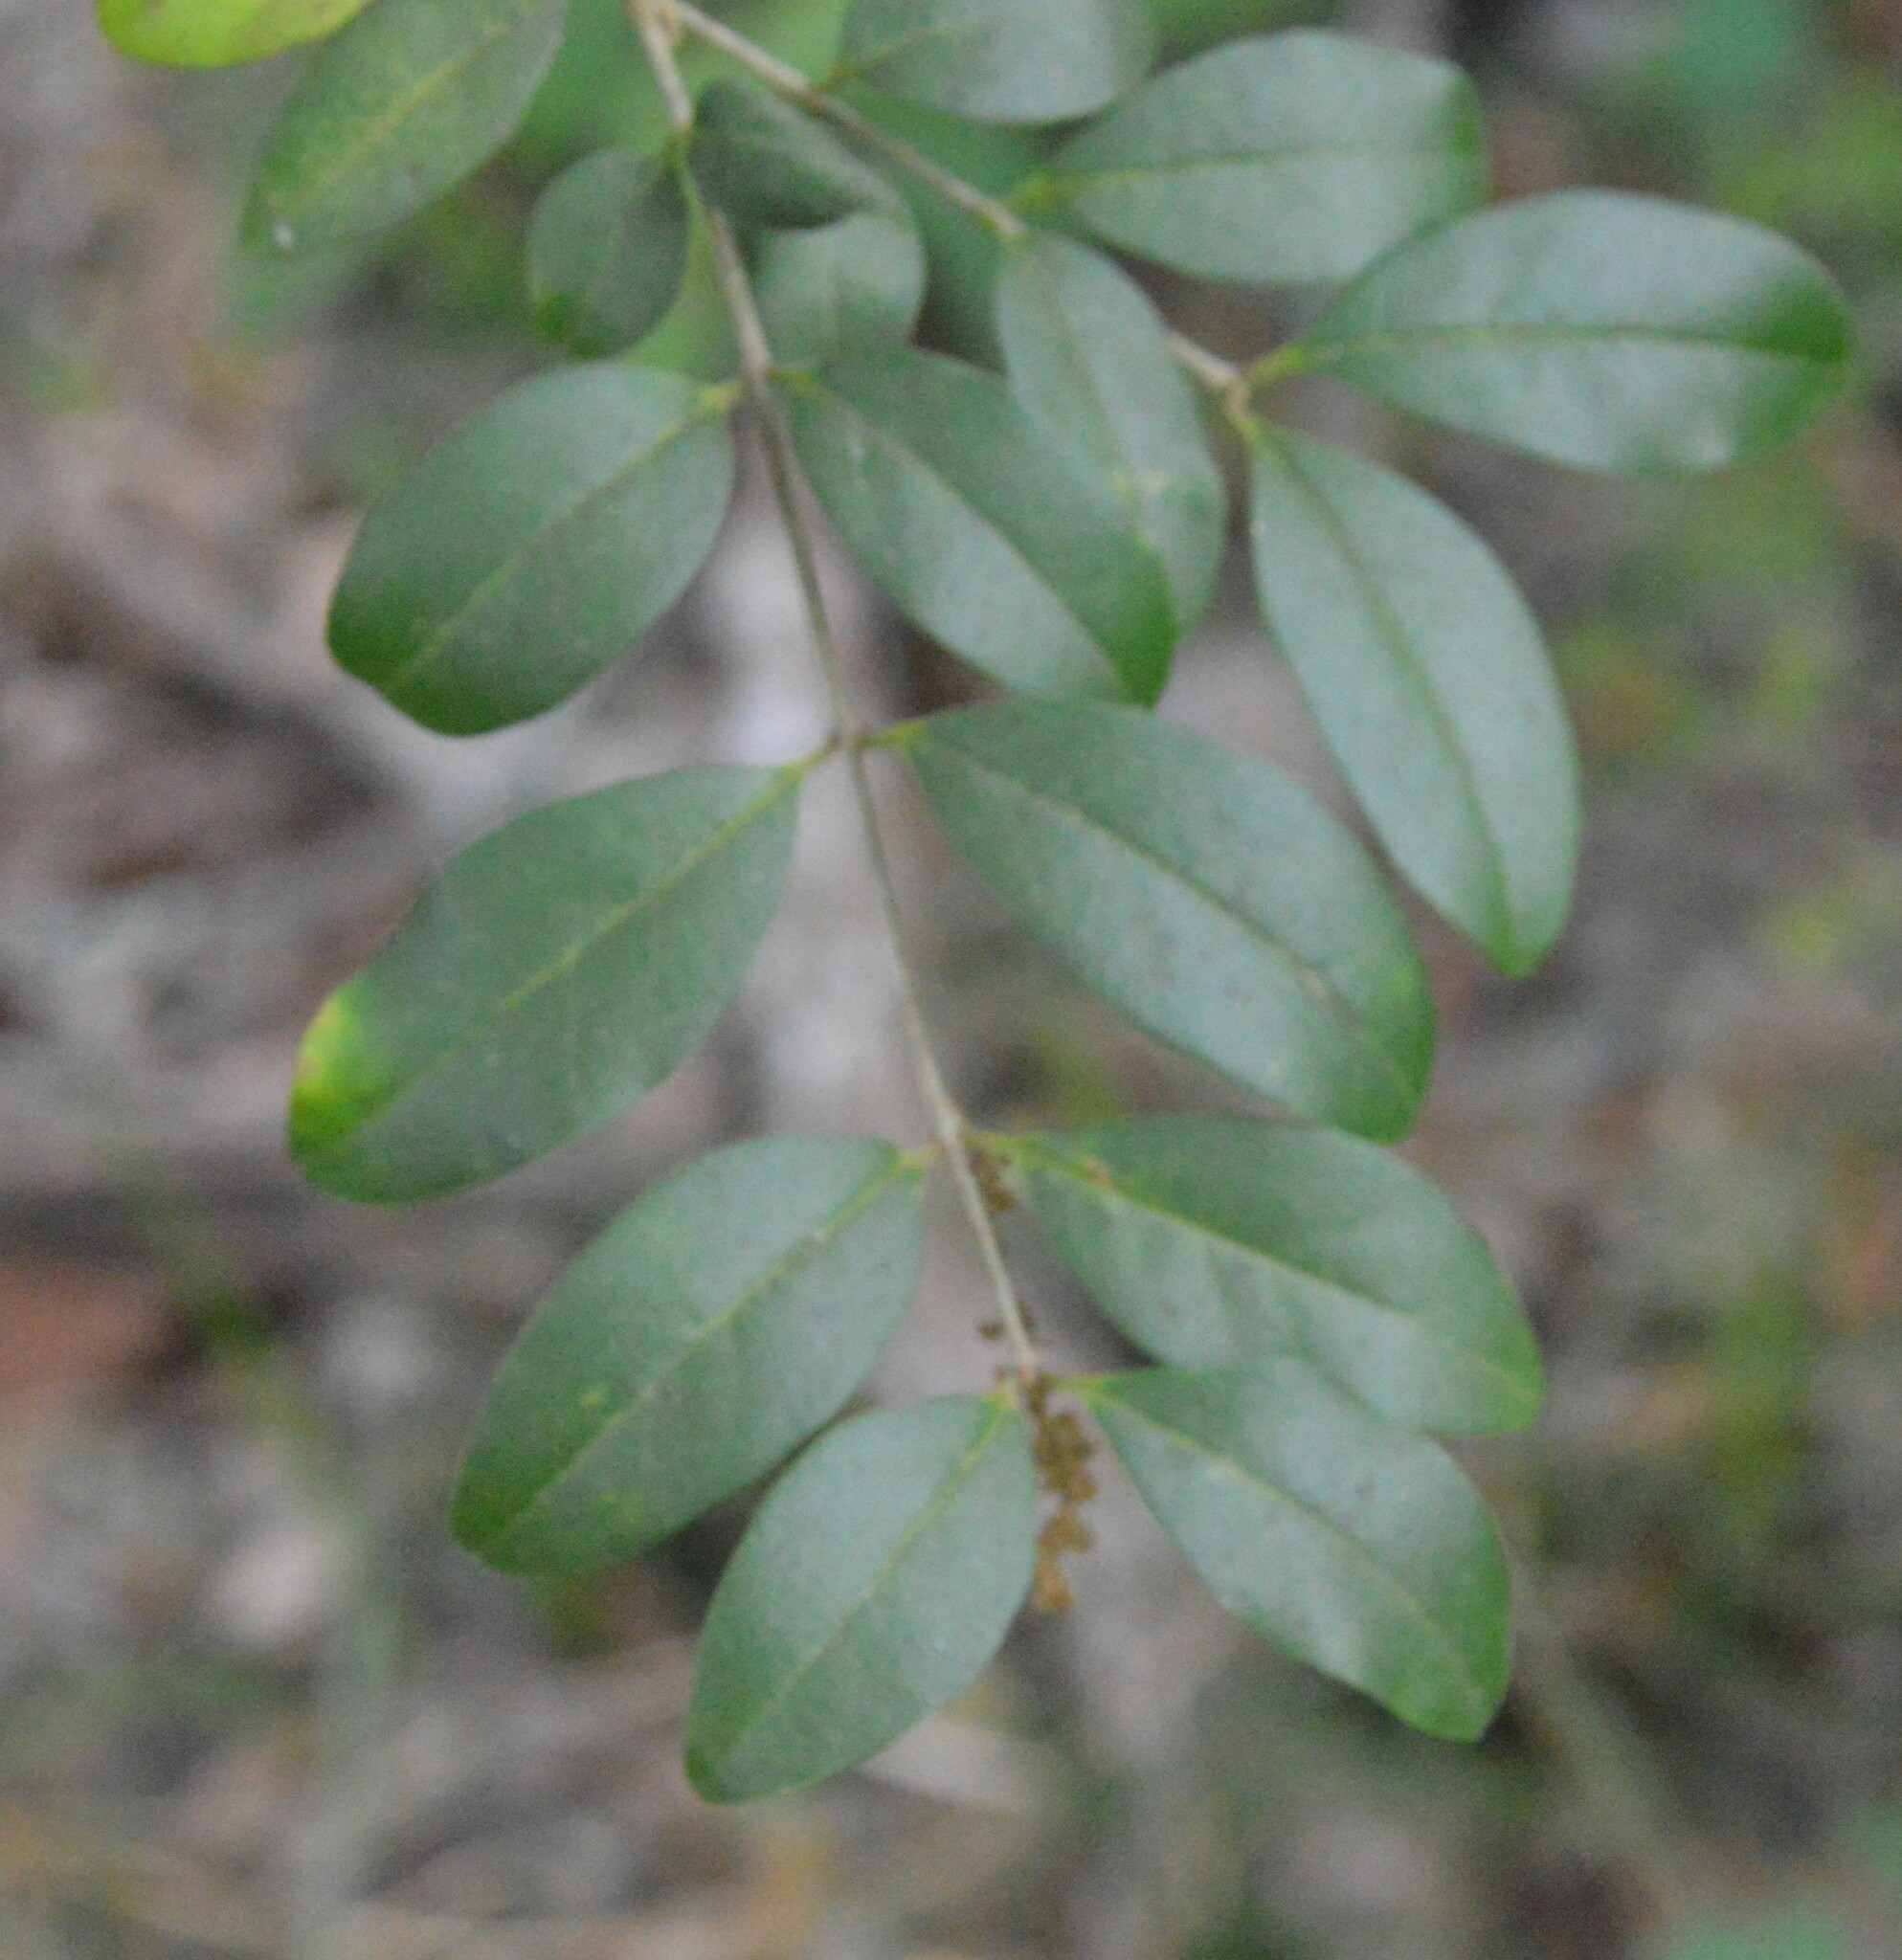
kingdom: Plantae
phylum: Tracheophyta
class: Magnoliopsida
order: Lamiales
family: Oleaceae
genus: Ligustrum
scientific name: Ligustrum sinense
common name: Chinese privet
